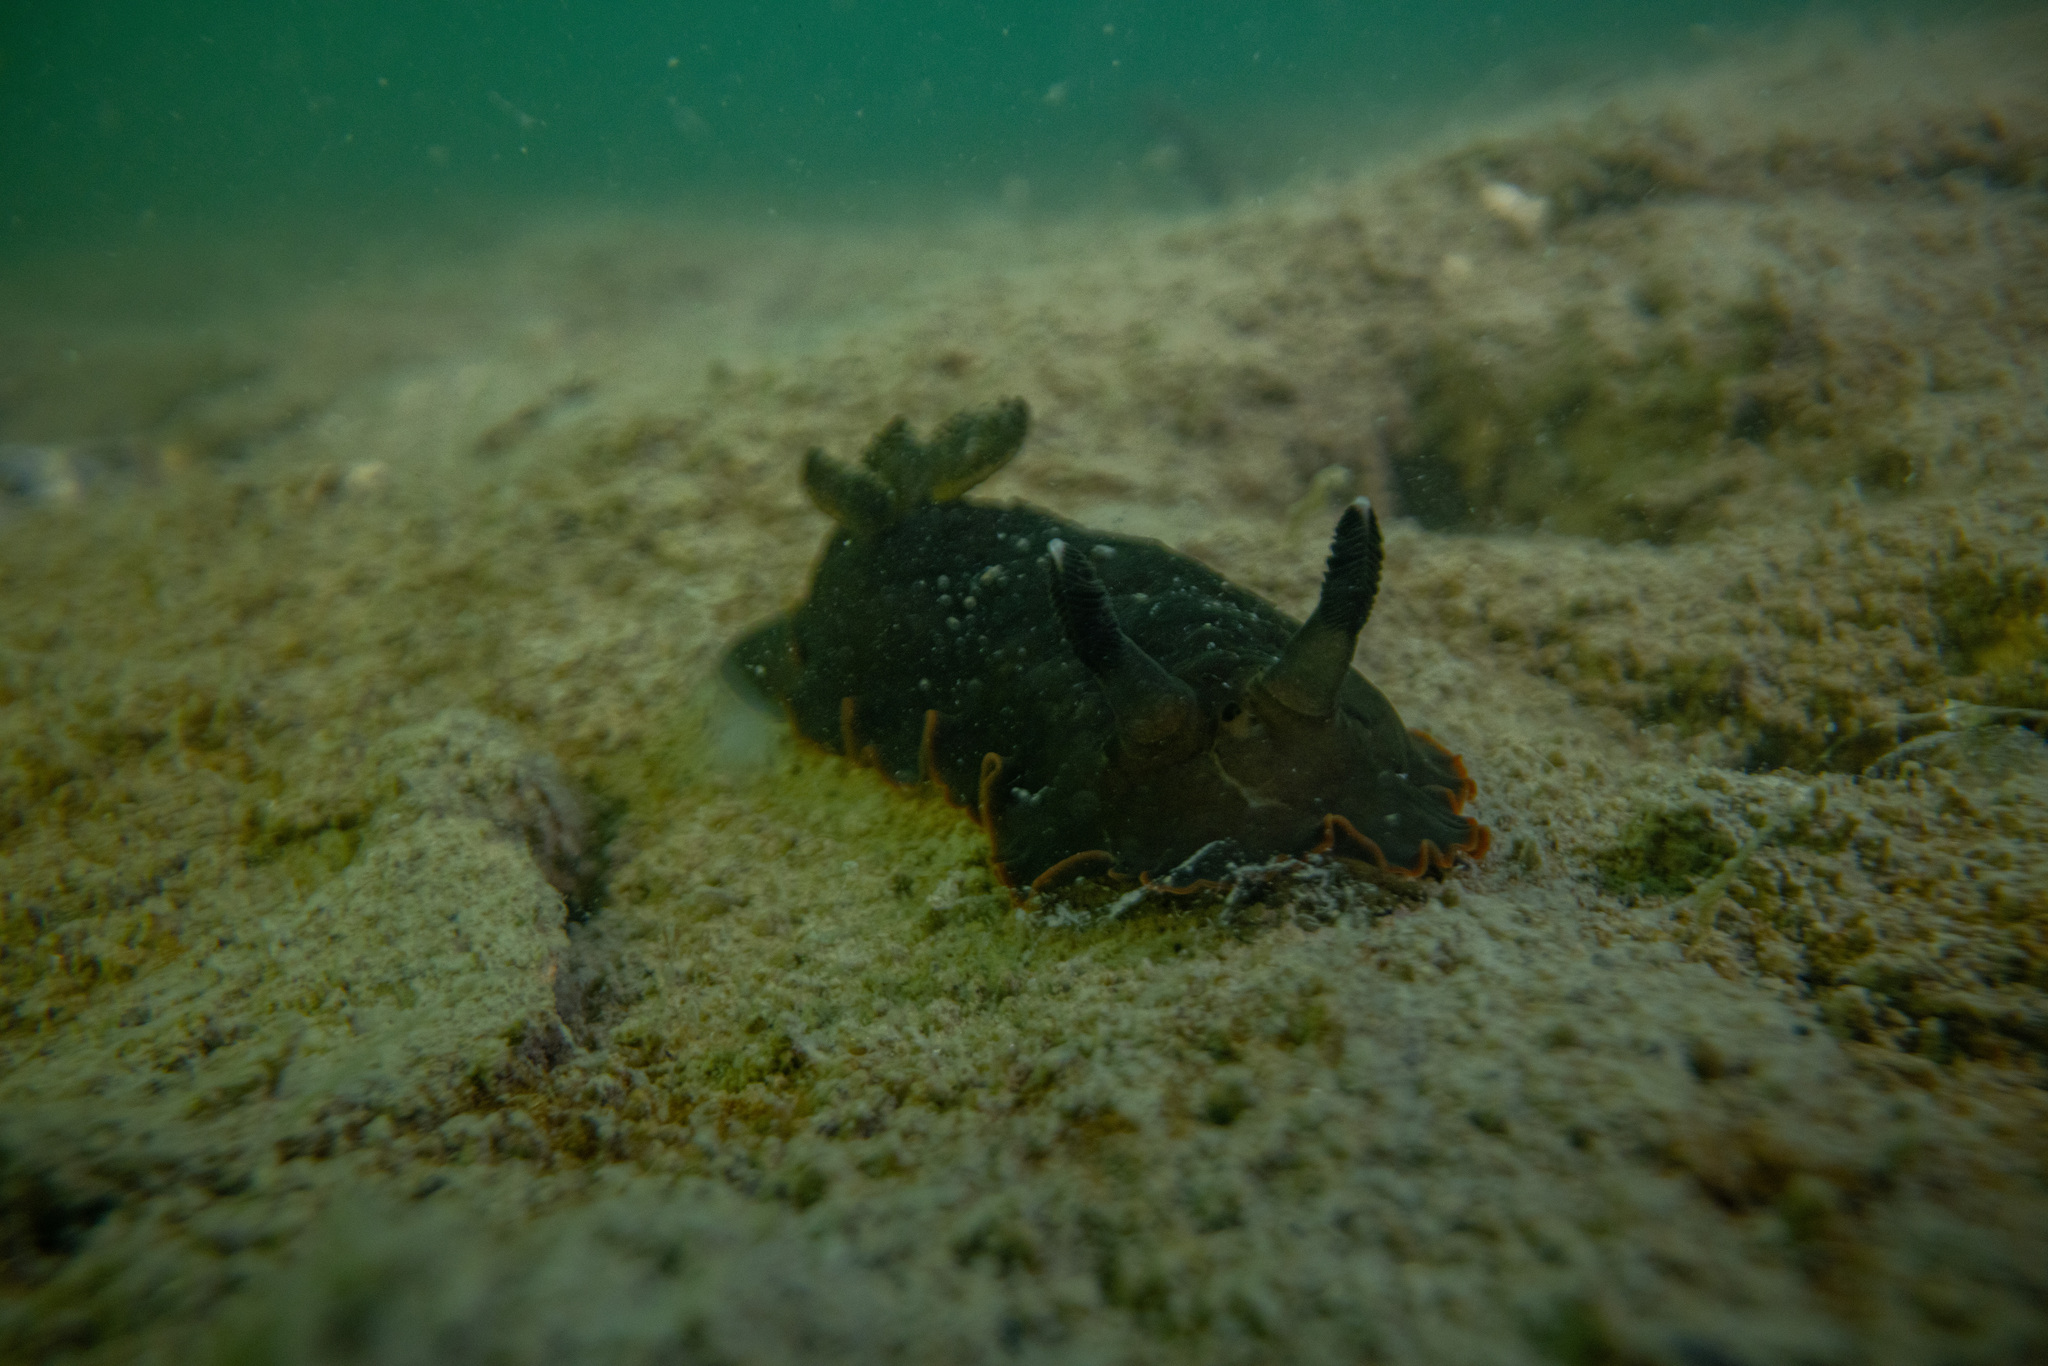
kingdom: Animalia
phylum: Mollusca
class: Gastropoda
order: Nudibranchia
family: Dendrodorididae
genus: Dendrodoris
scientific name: Dendrodoris nigra
